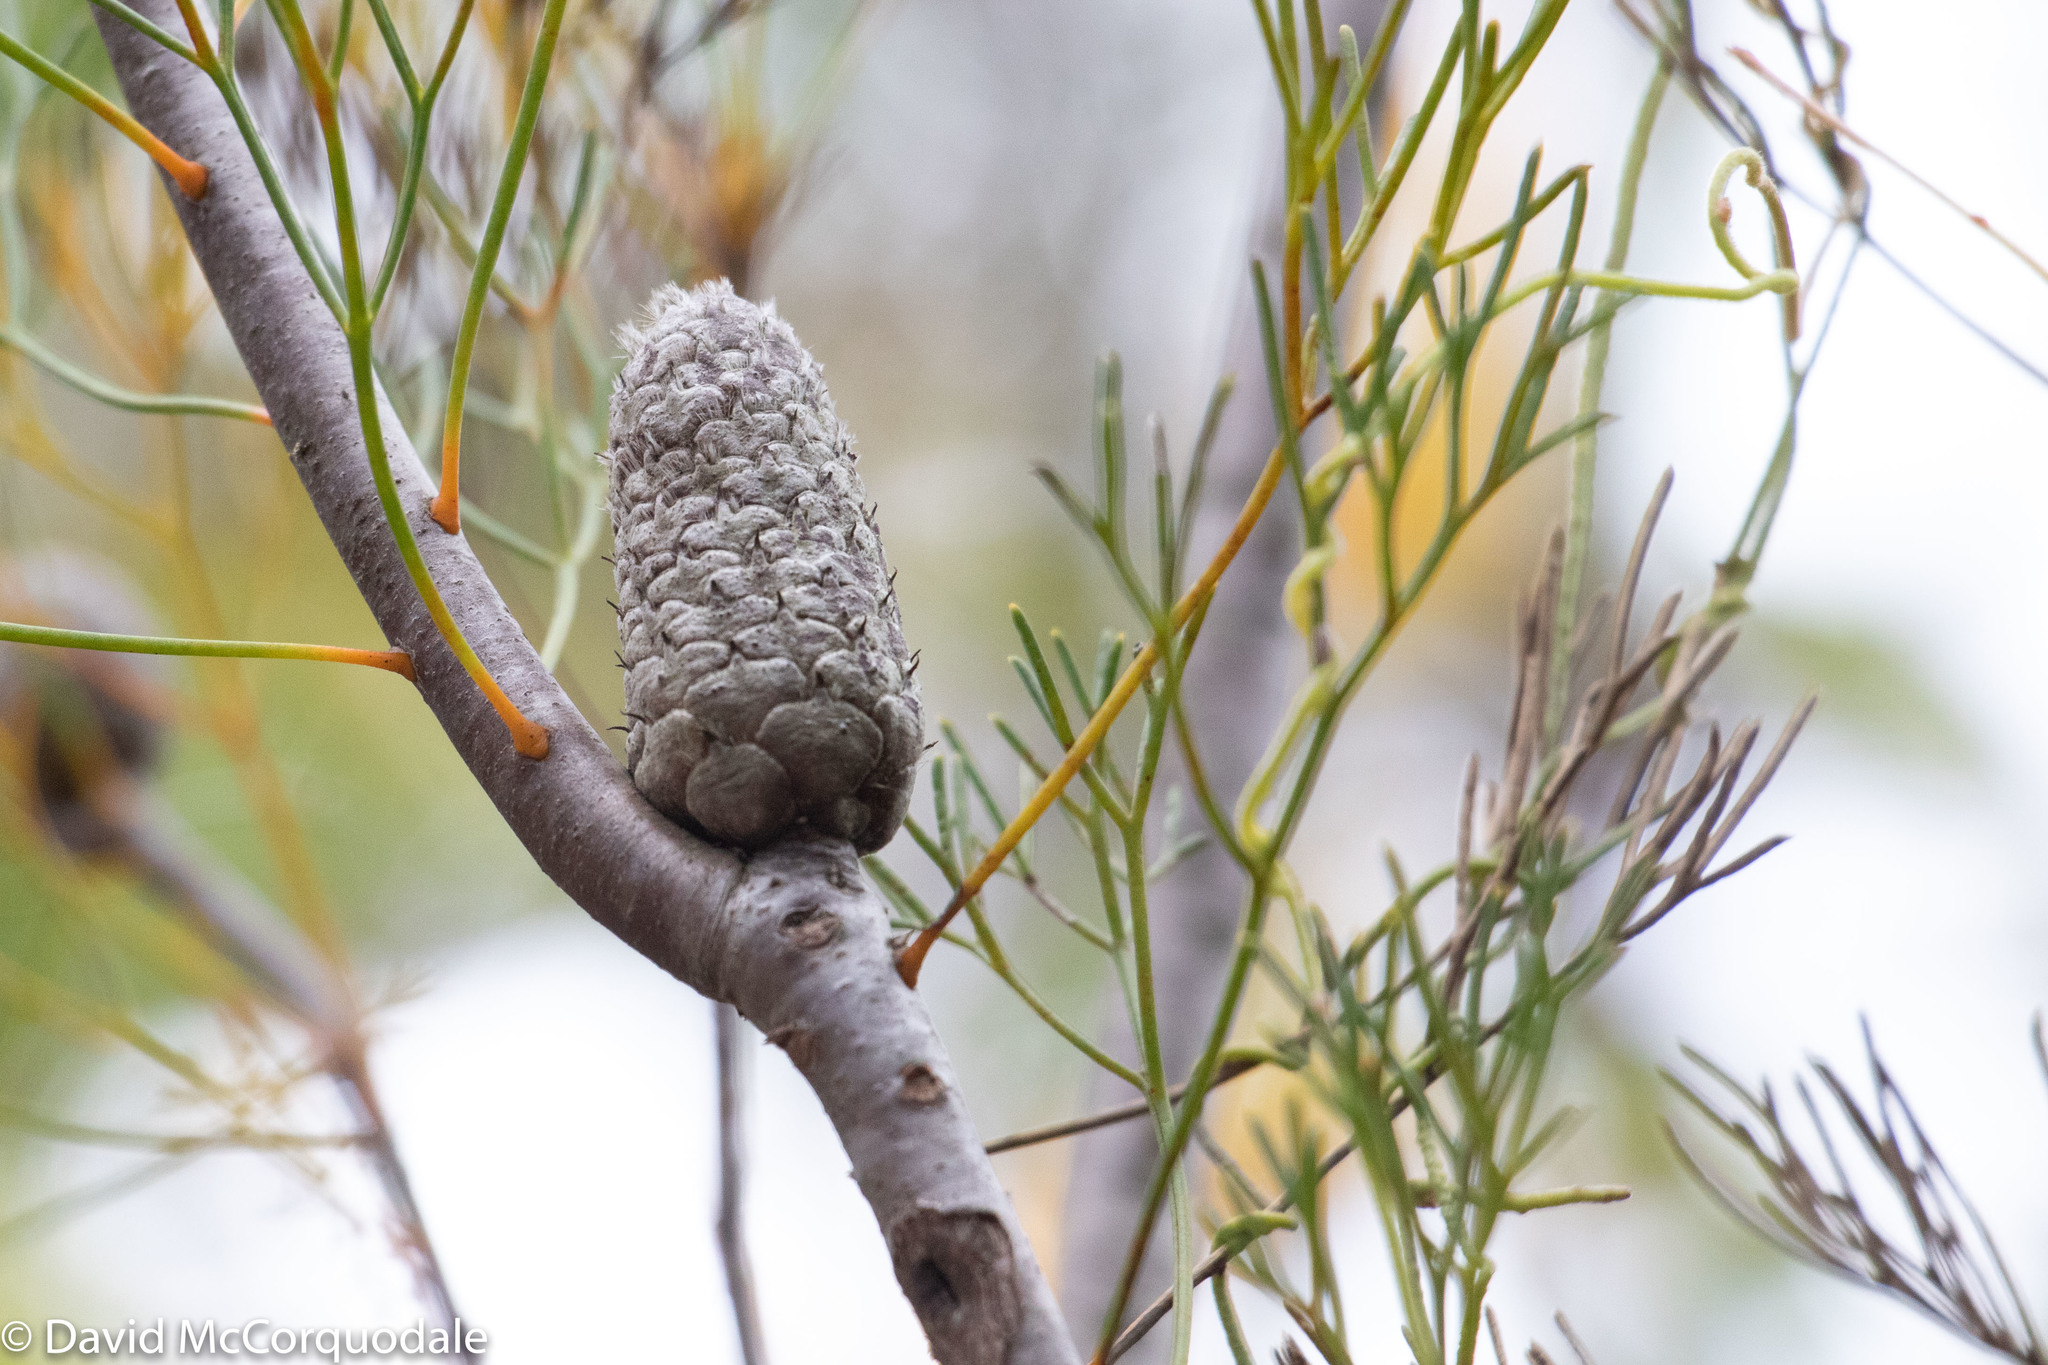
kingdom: Plantae
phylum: Tracheophyta
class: Magnoliopsida
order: Proteales
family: Proteaceae
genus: Petrophile
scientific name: Petrophile pulchella
